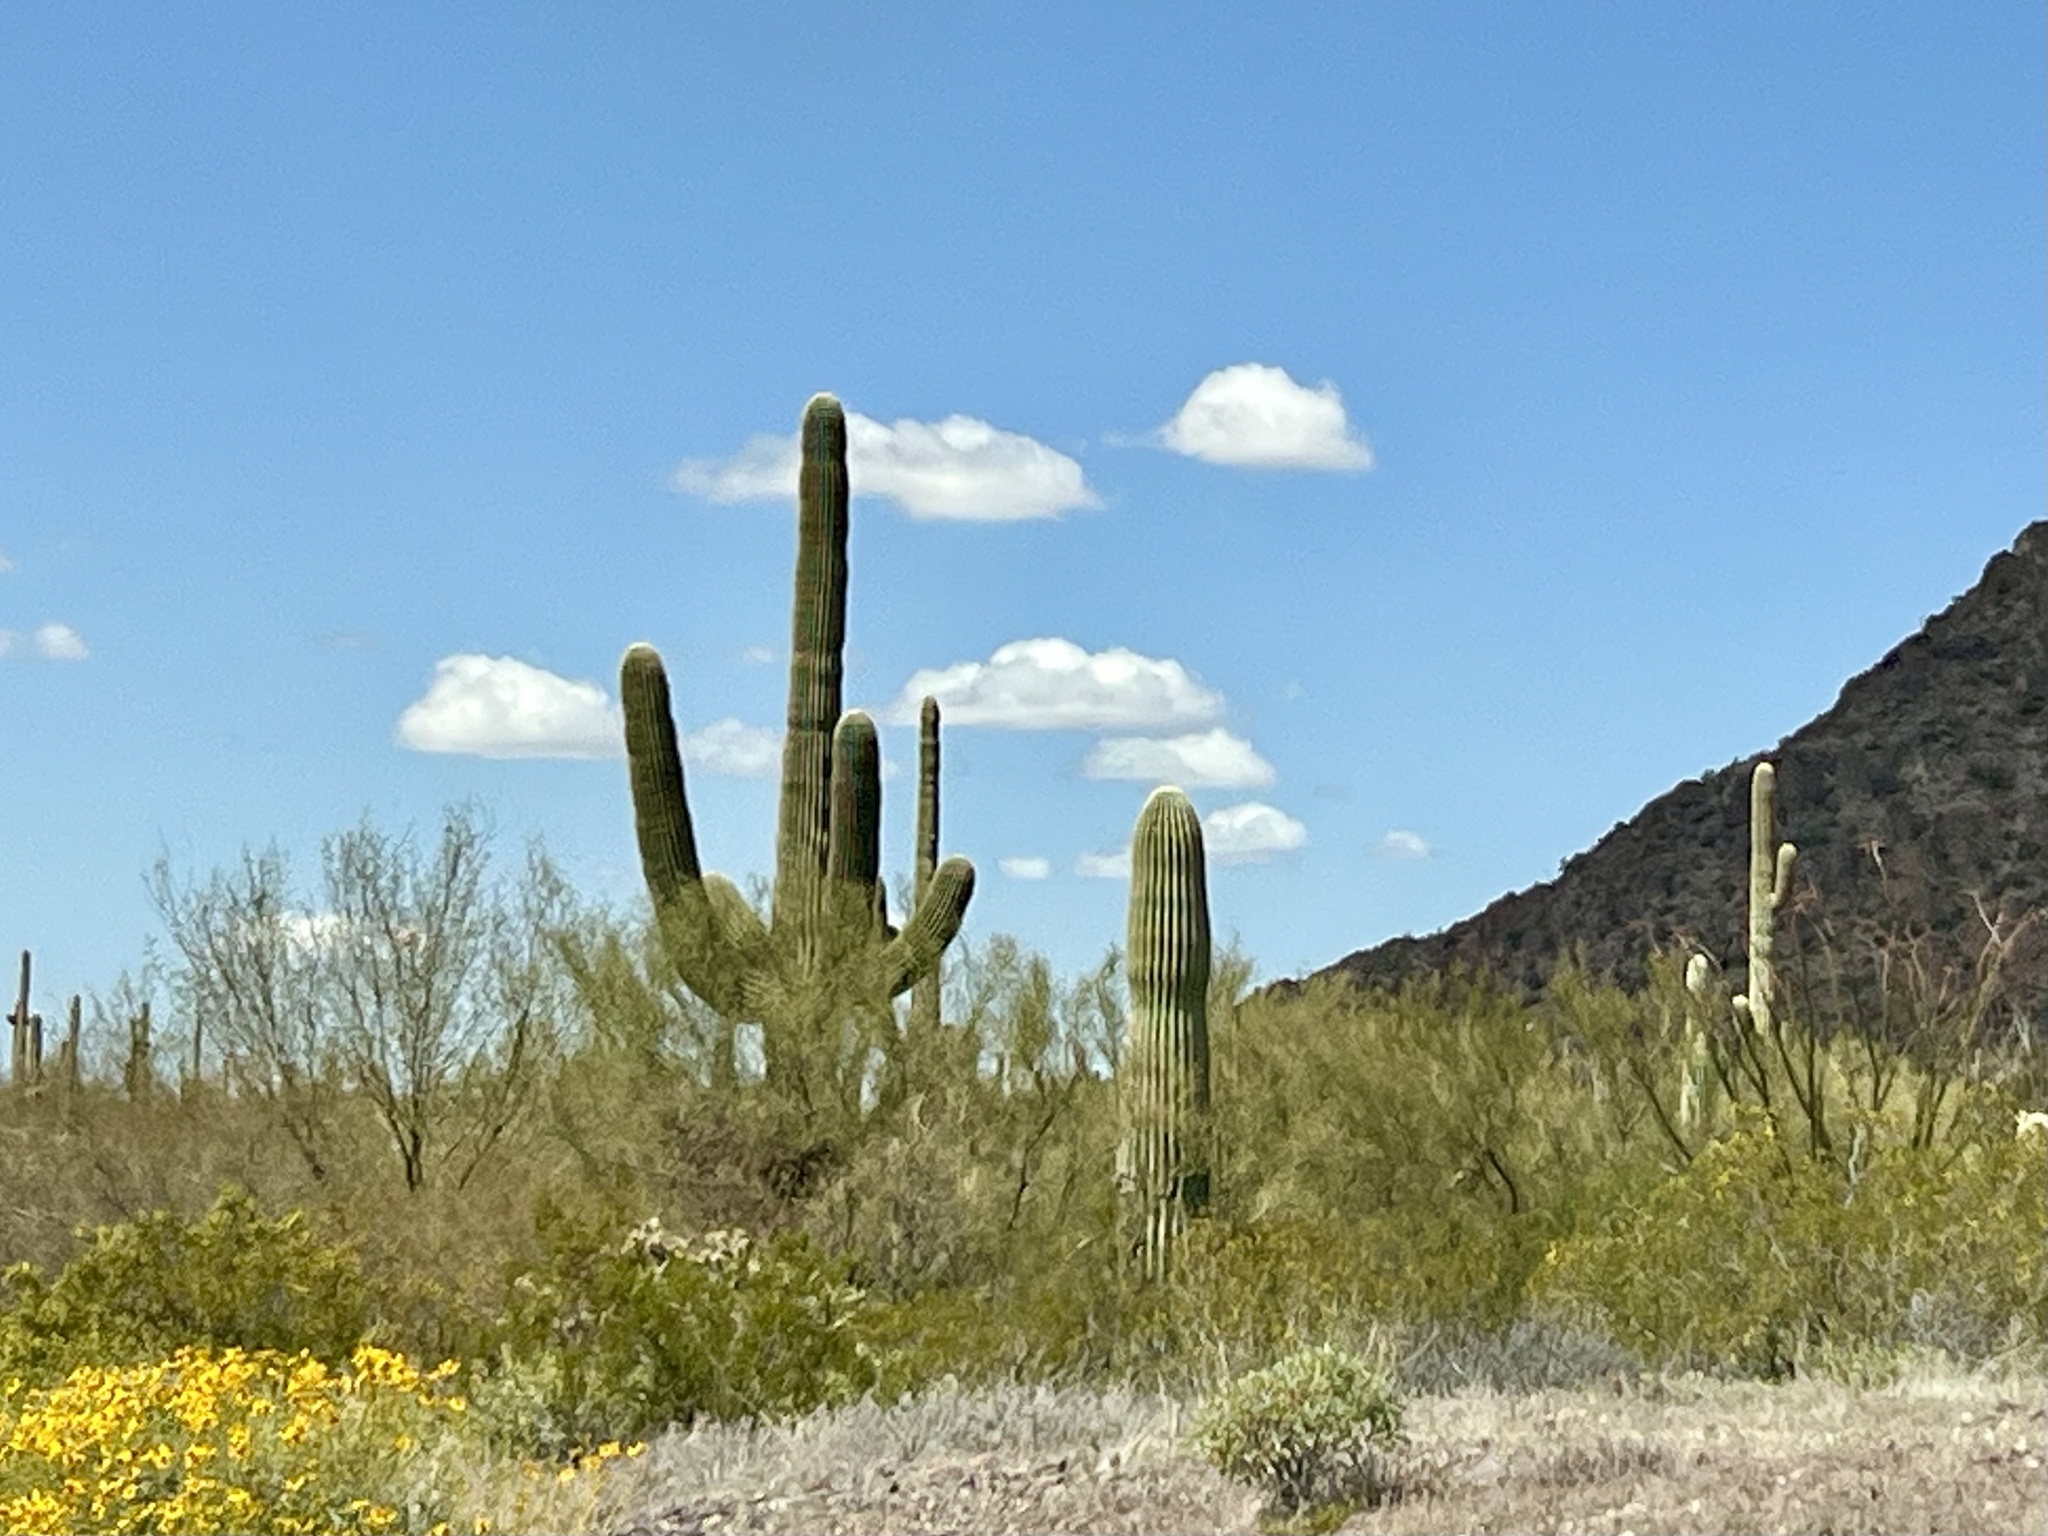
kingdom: Plantae
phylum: Tracheophyta
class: Magnoliopsida
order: Caryophyllales
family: Cactaceae
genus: Carnegiea
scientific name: Carnegiea gigantea
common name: Saguaro
